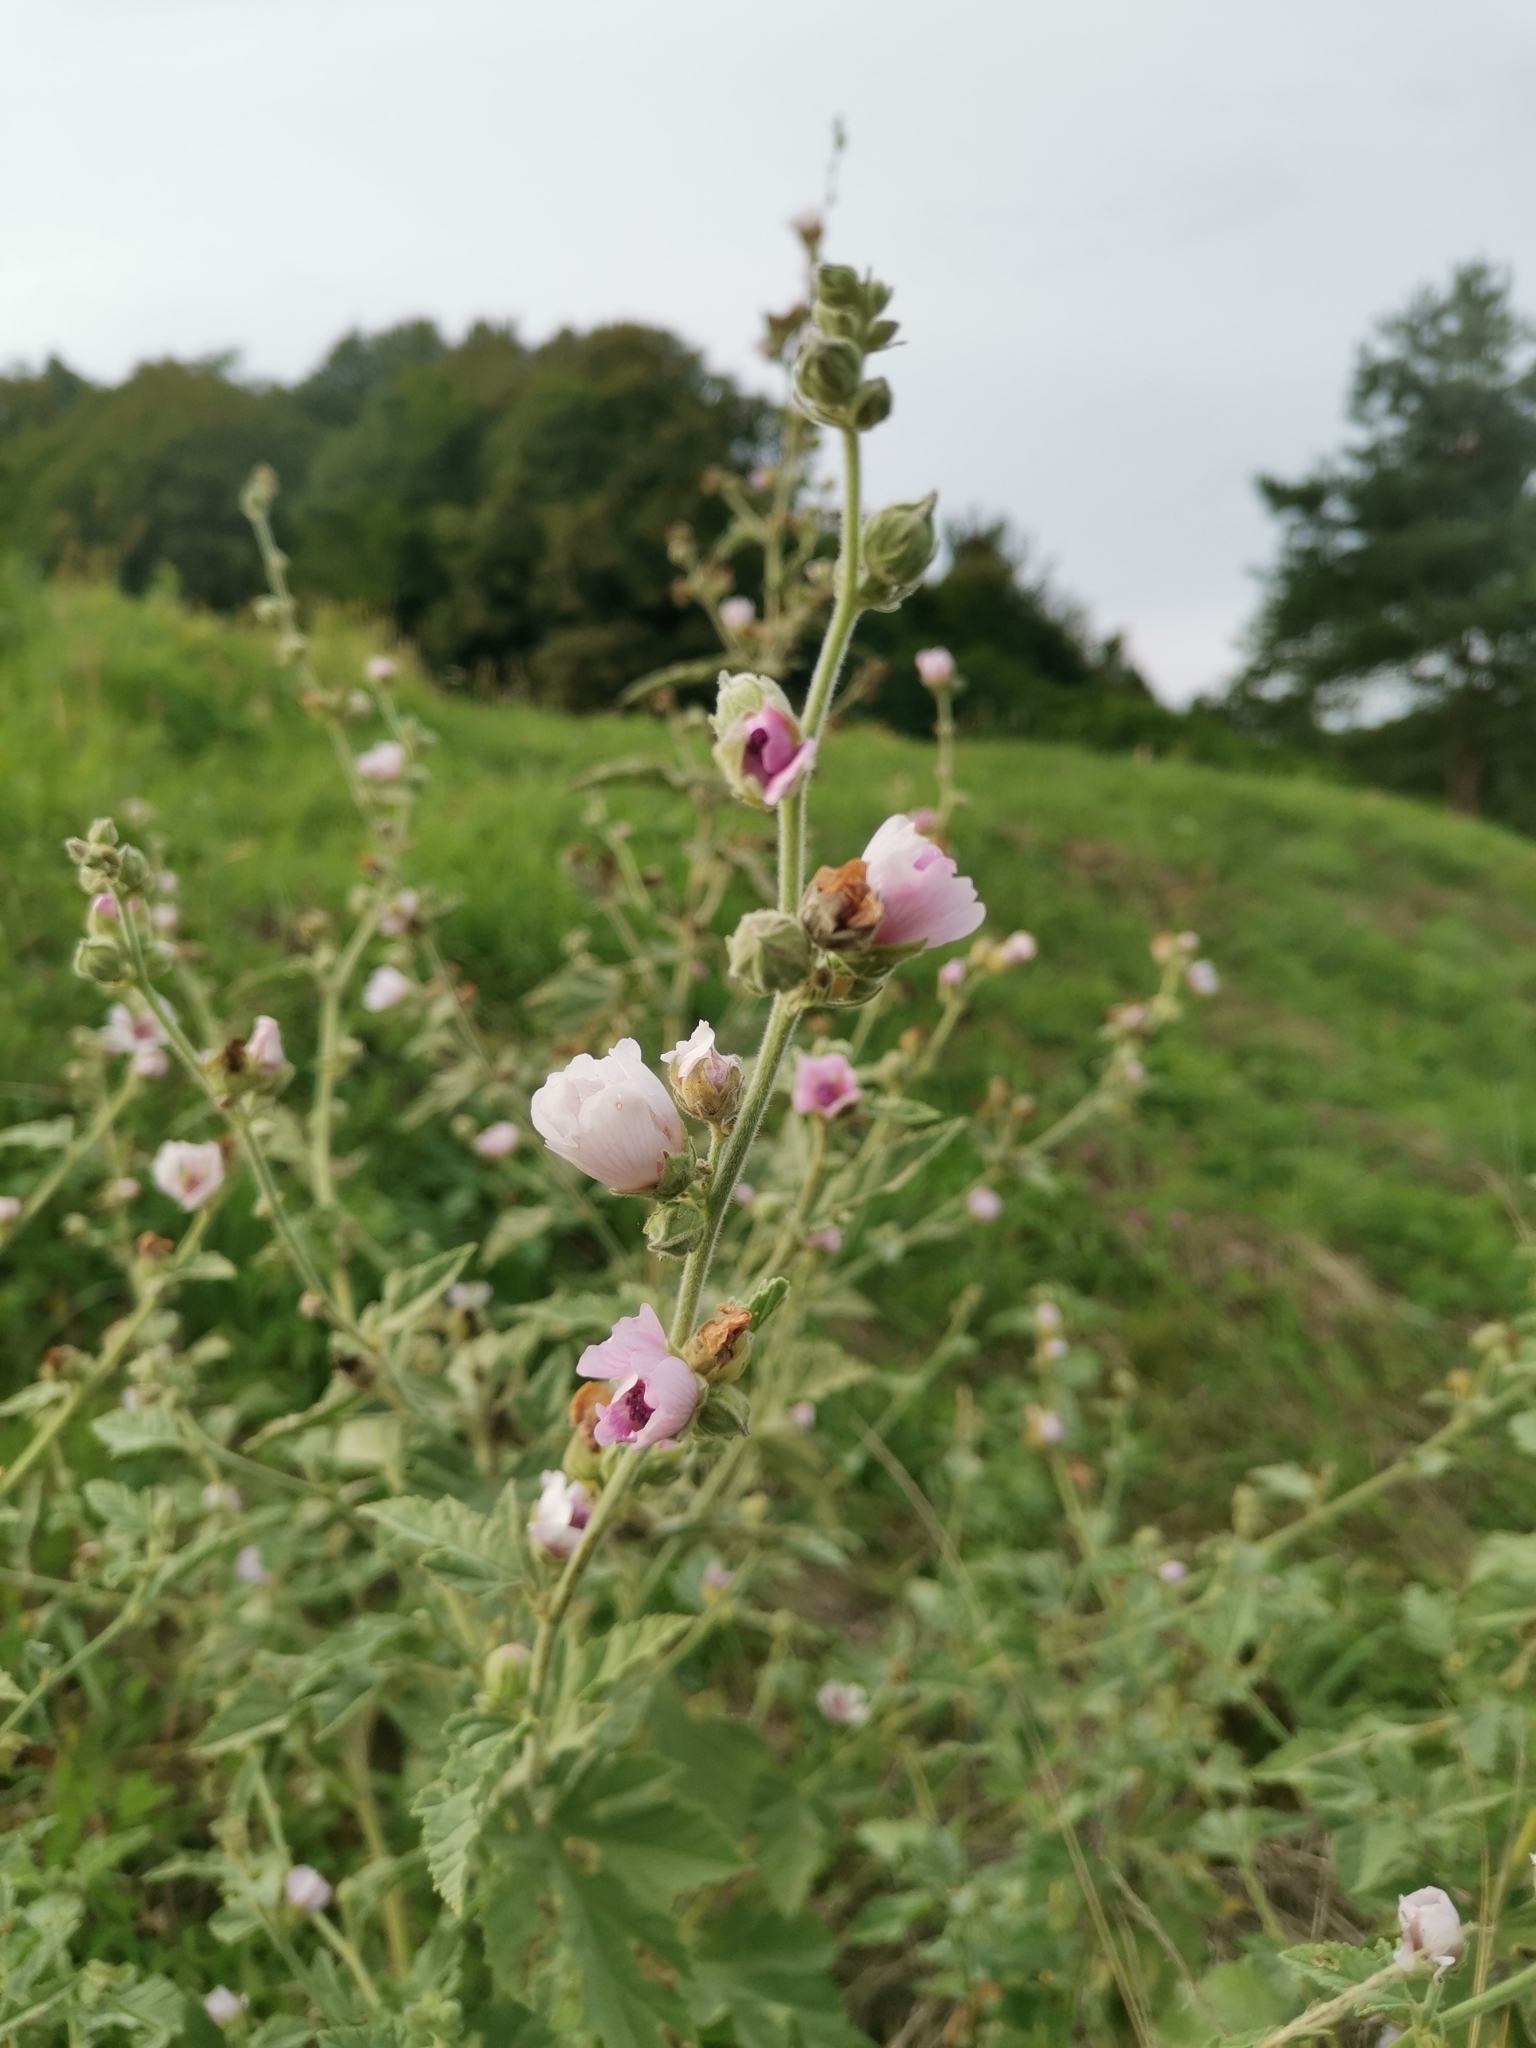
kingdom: Plantae
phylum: Tracheophyta
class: Magnoliopsida
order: Malvales
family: Malvaceae
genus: Althaea
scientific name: Althaea officinalis
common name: Marsh-mallow
